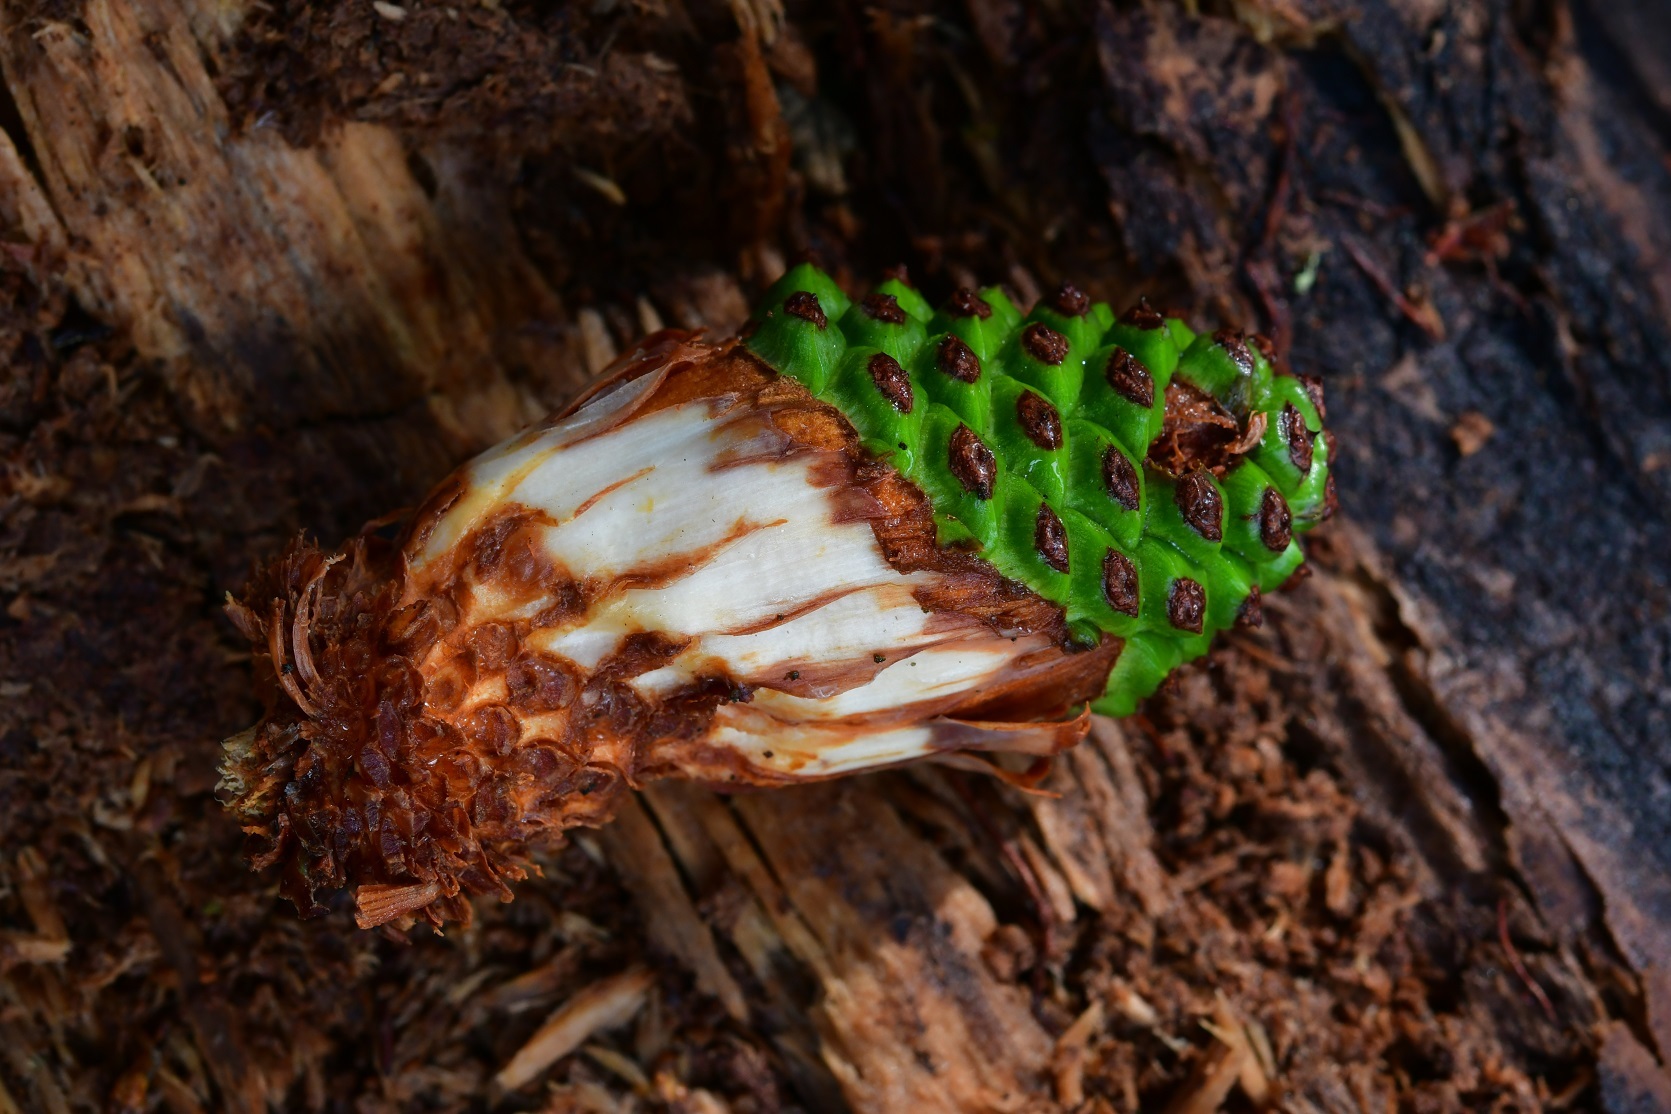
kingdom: Plantae
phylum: Tracheophyta
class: Pinopsida
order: Pinales
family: Pinaceae
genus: Pinus
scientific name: Pinus pseudostrobus
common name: False weymouth pine
